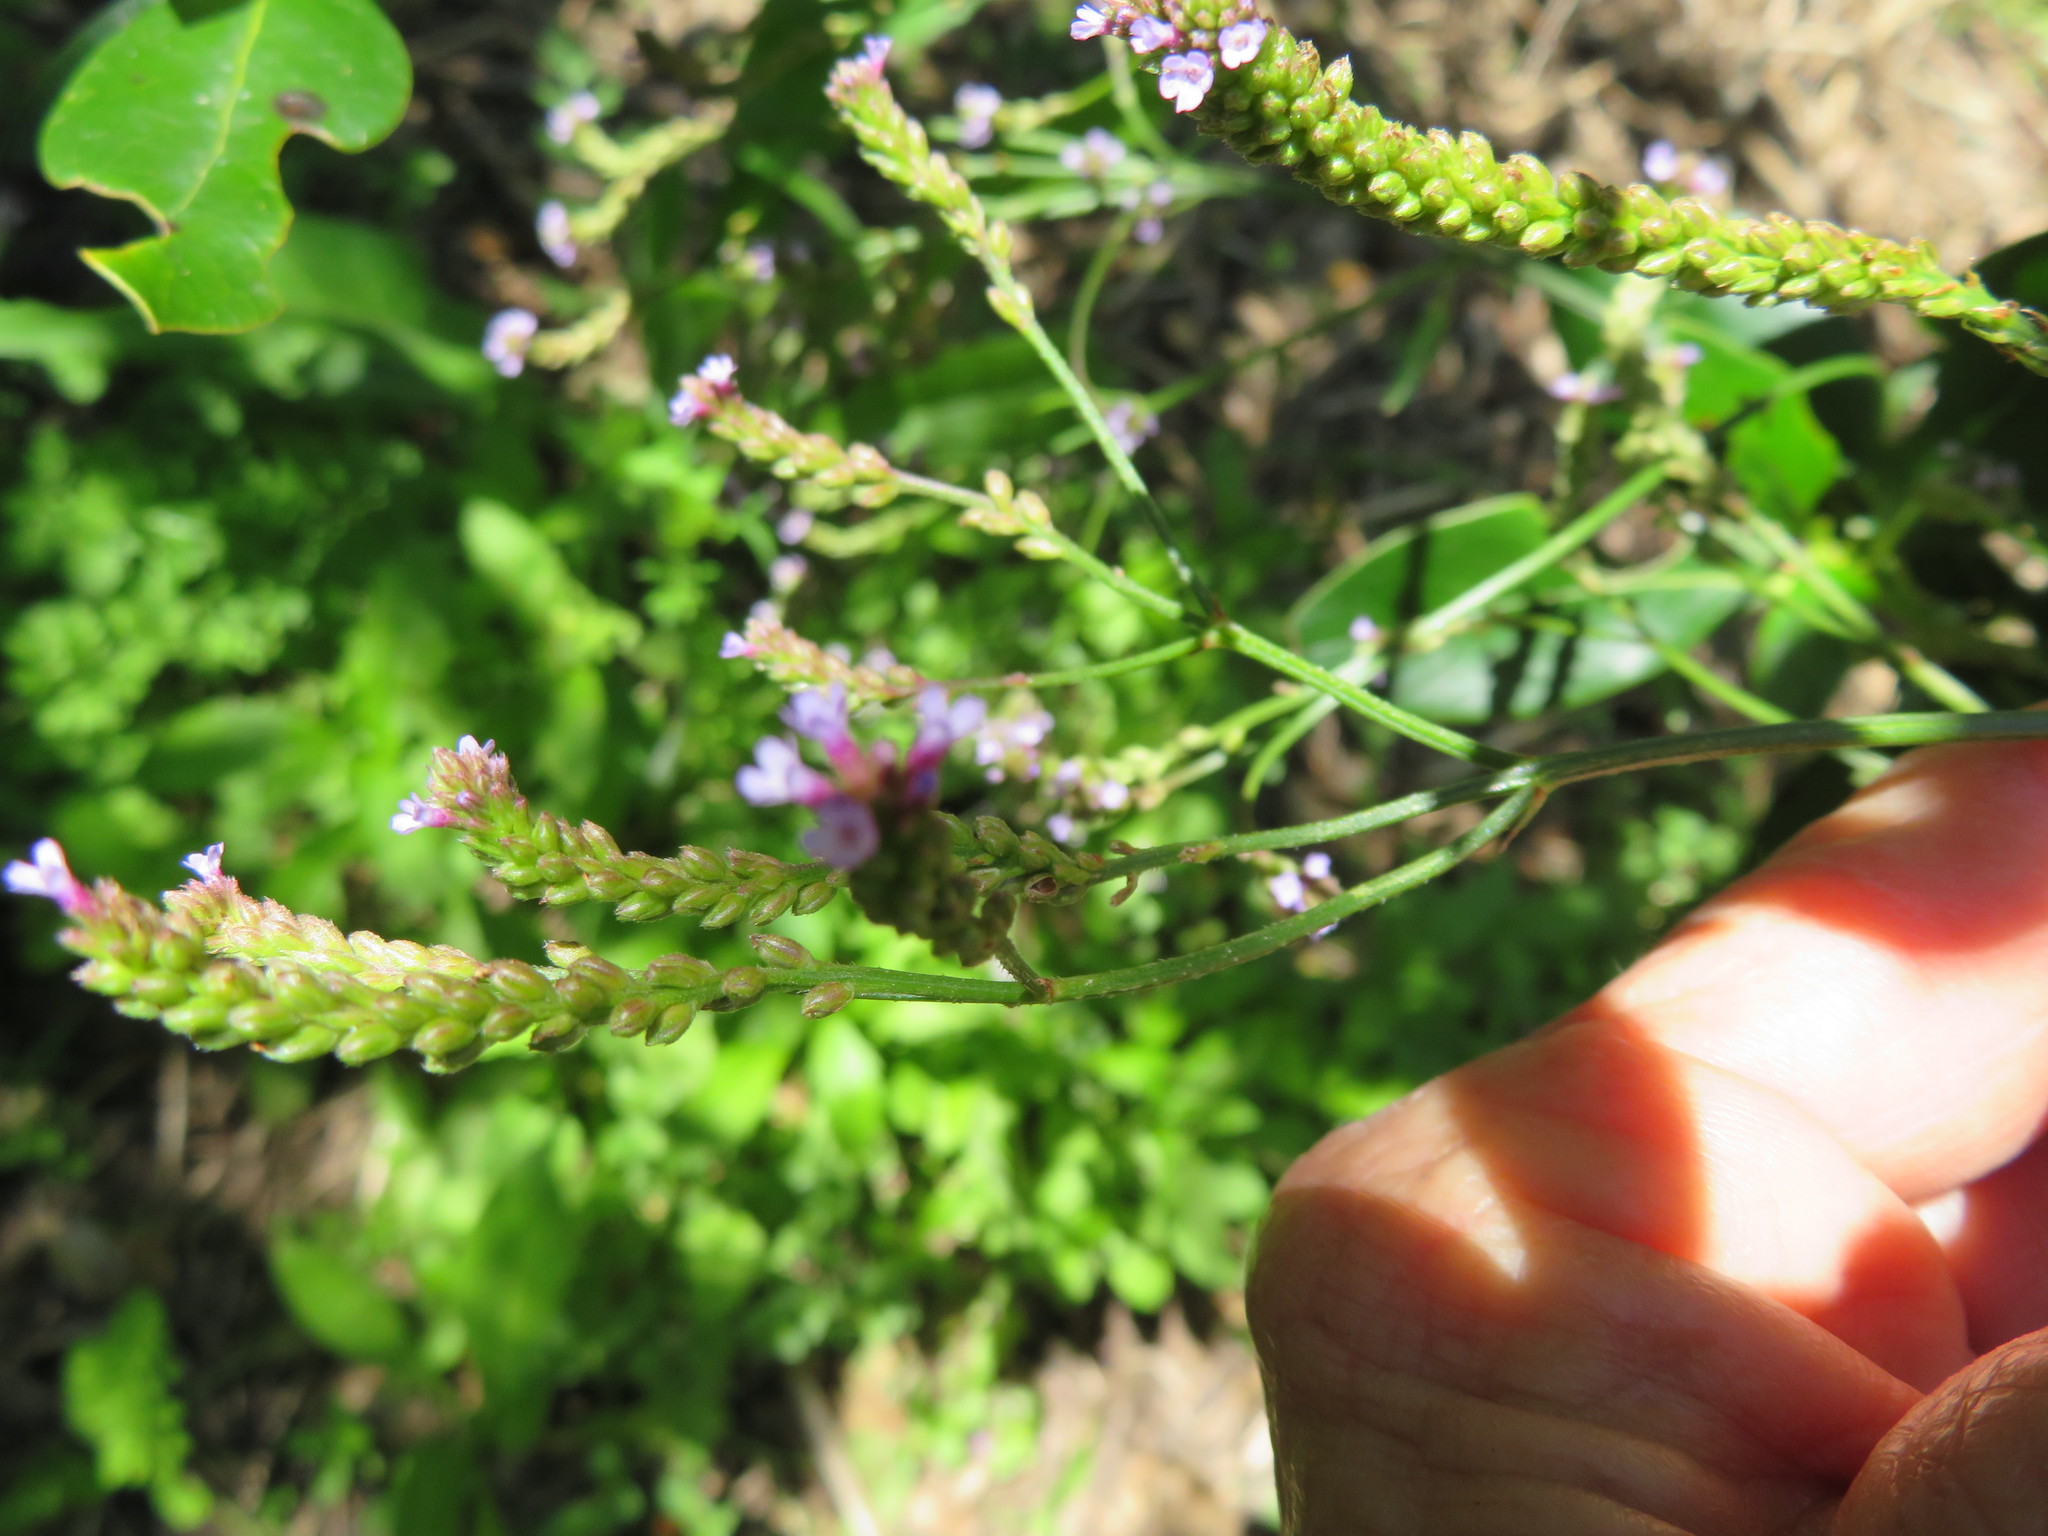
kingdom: Plantae
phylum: Tracheophyta
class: Magnoliopsida
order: Lamiales
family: Verbenaceae
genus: Verbena
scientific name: Verbena litoralis
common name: Seashore vervain
